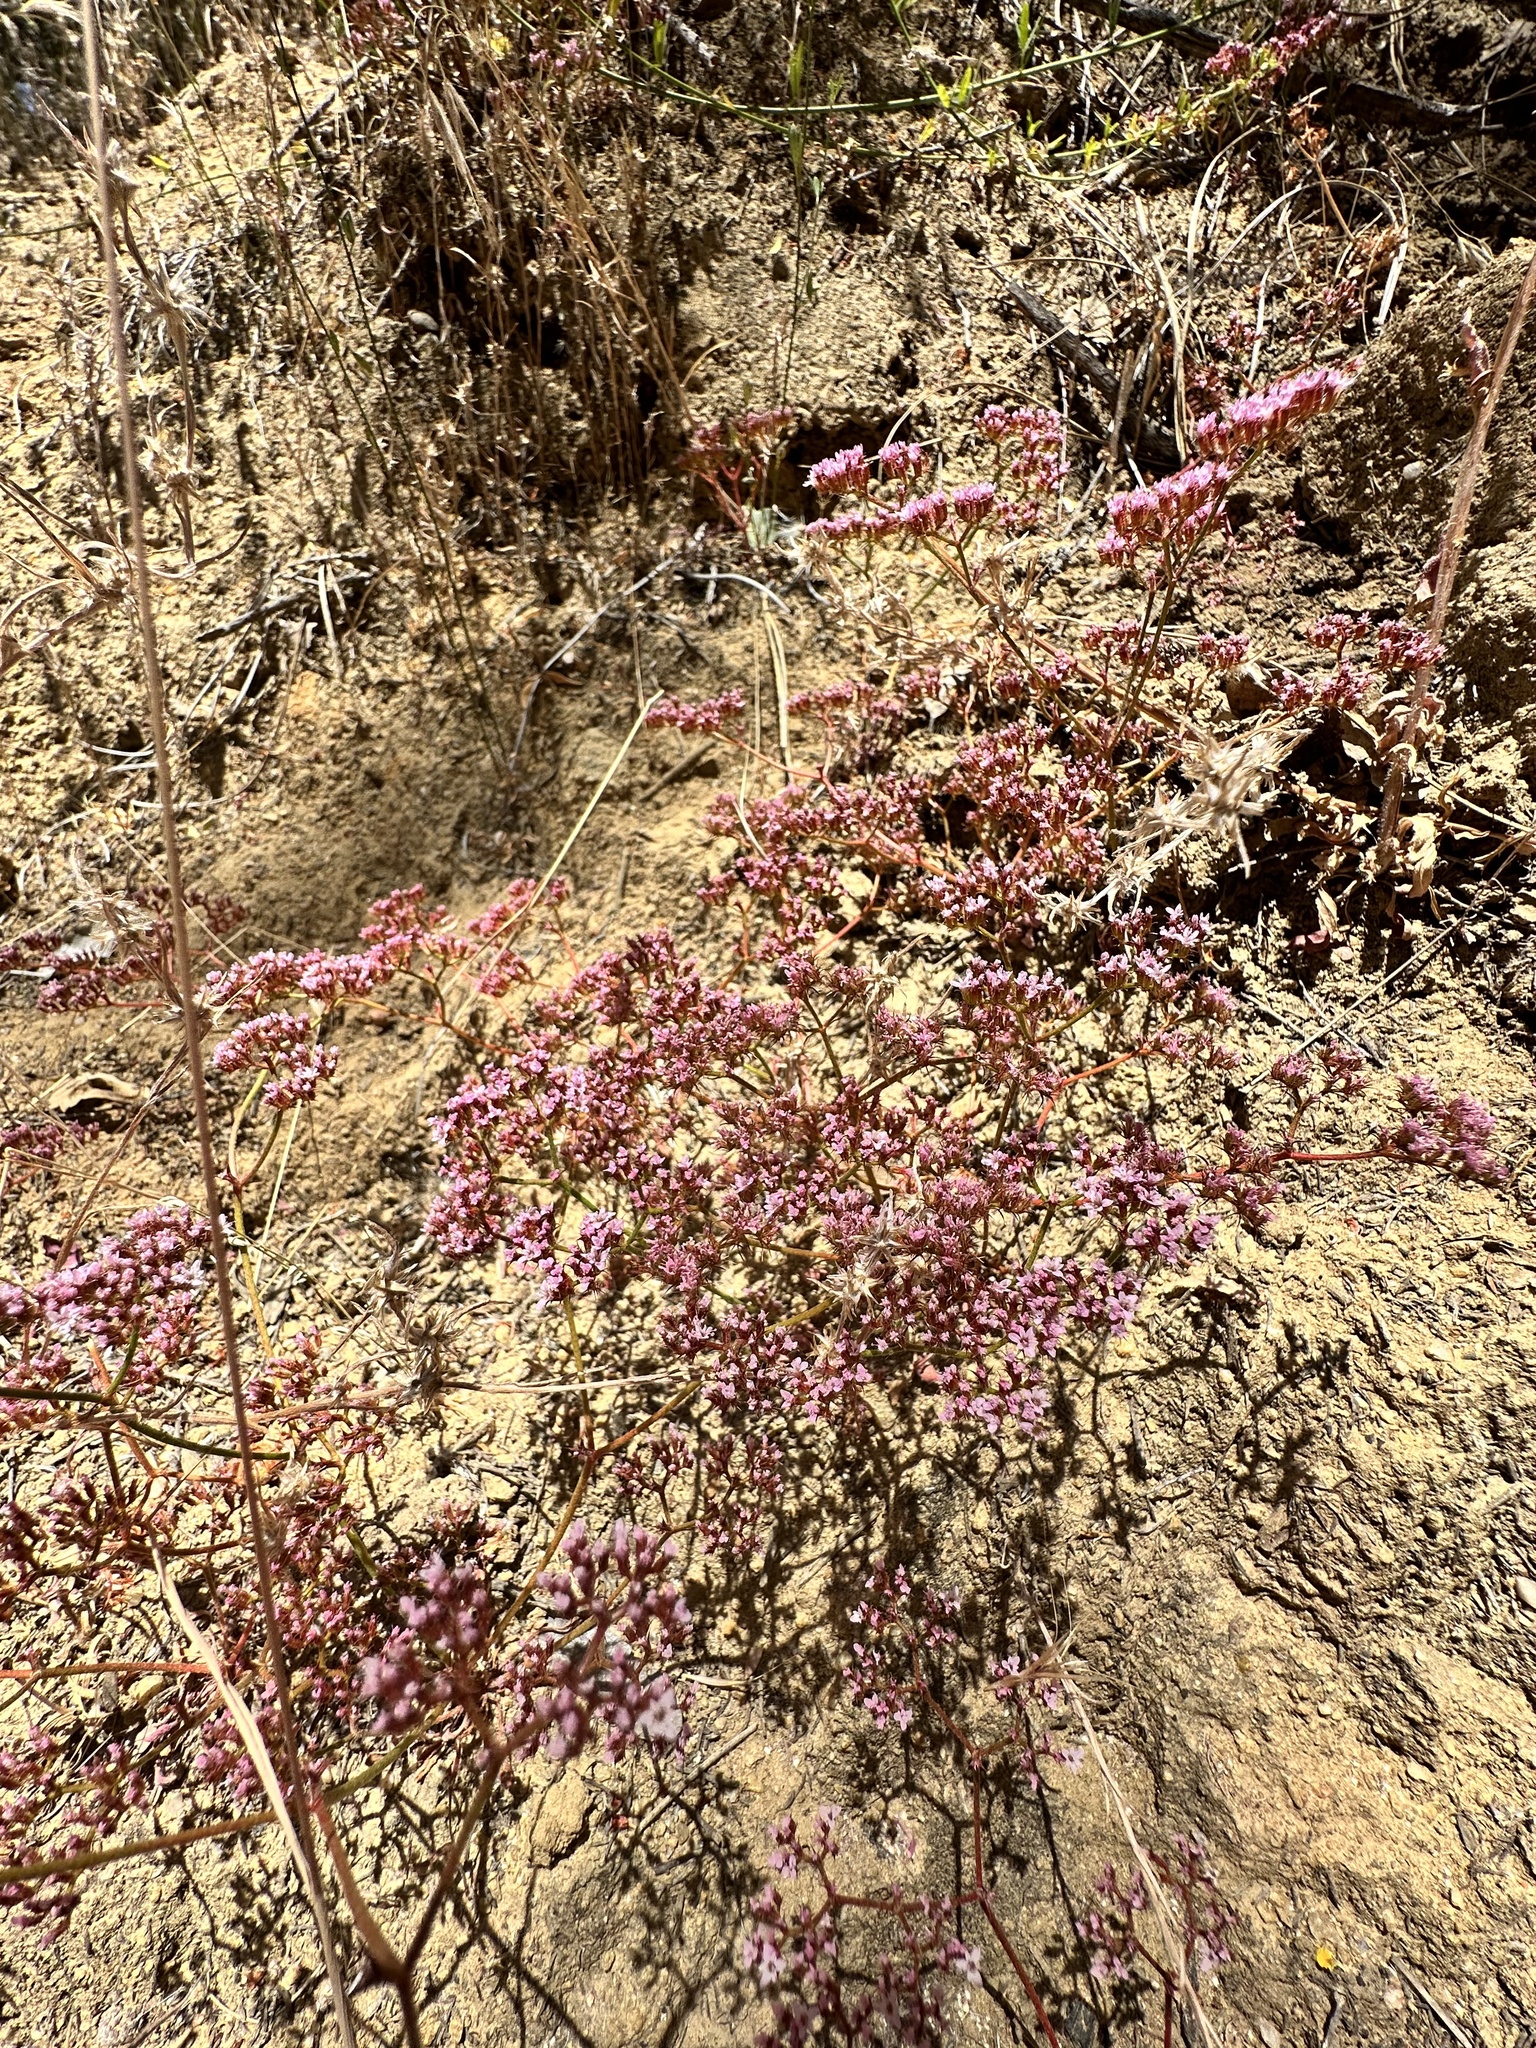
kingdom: Plantae
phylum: Tracheophyta
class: Magnoliopsida
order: Caryophyllales
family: Polygonaceae
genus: Chorizanthe
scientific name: Chorizanthe staticoides
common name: Turkish rugging
